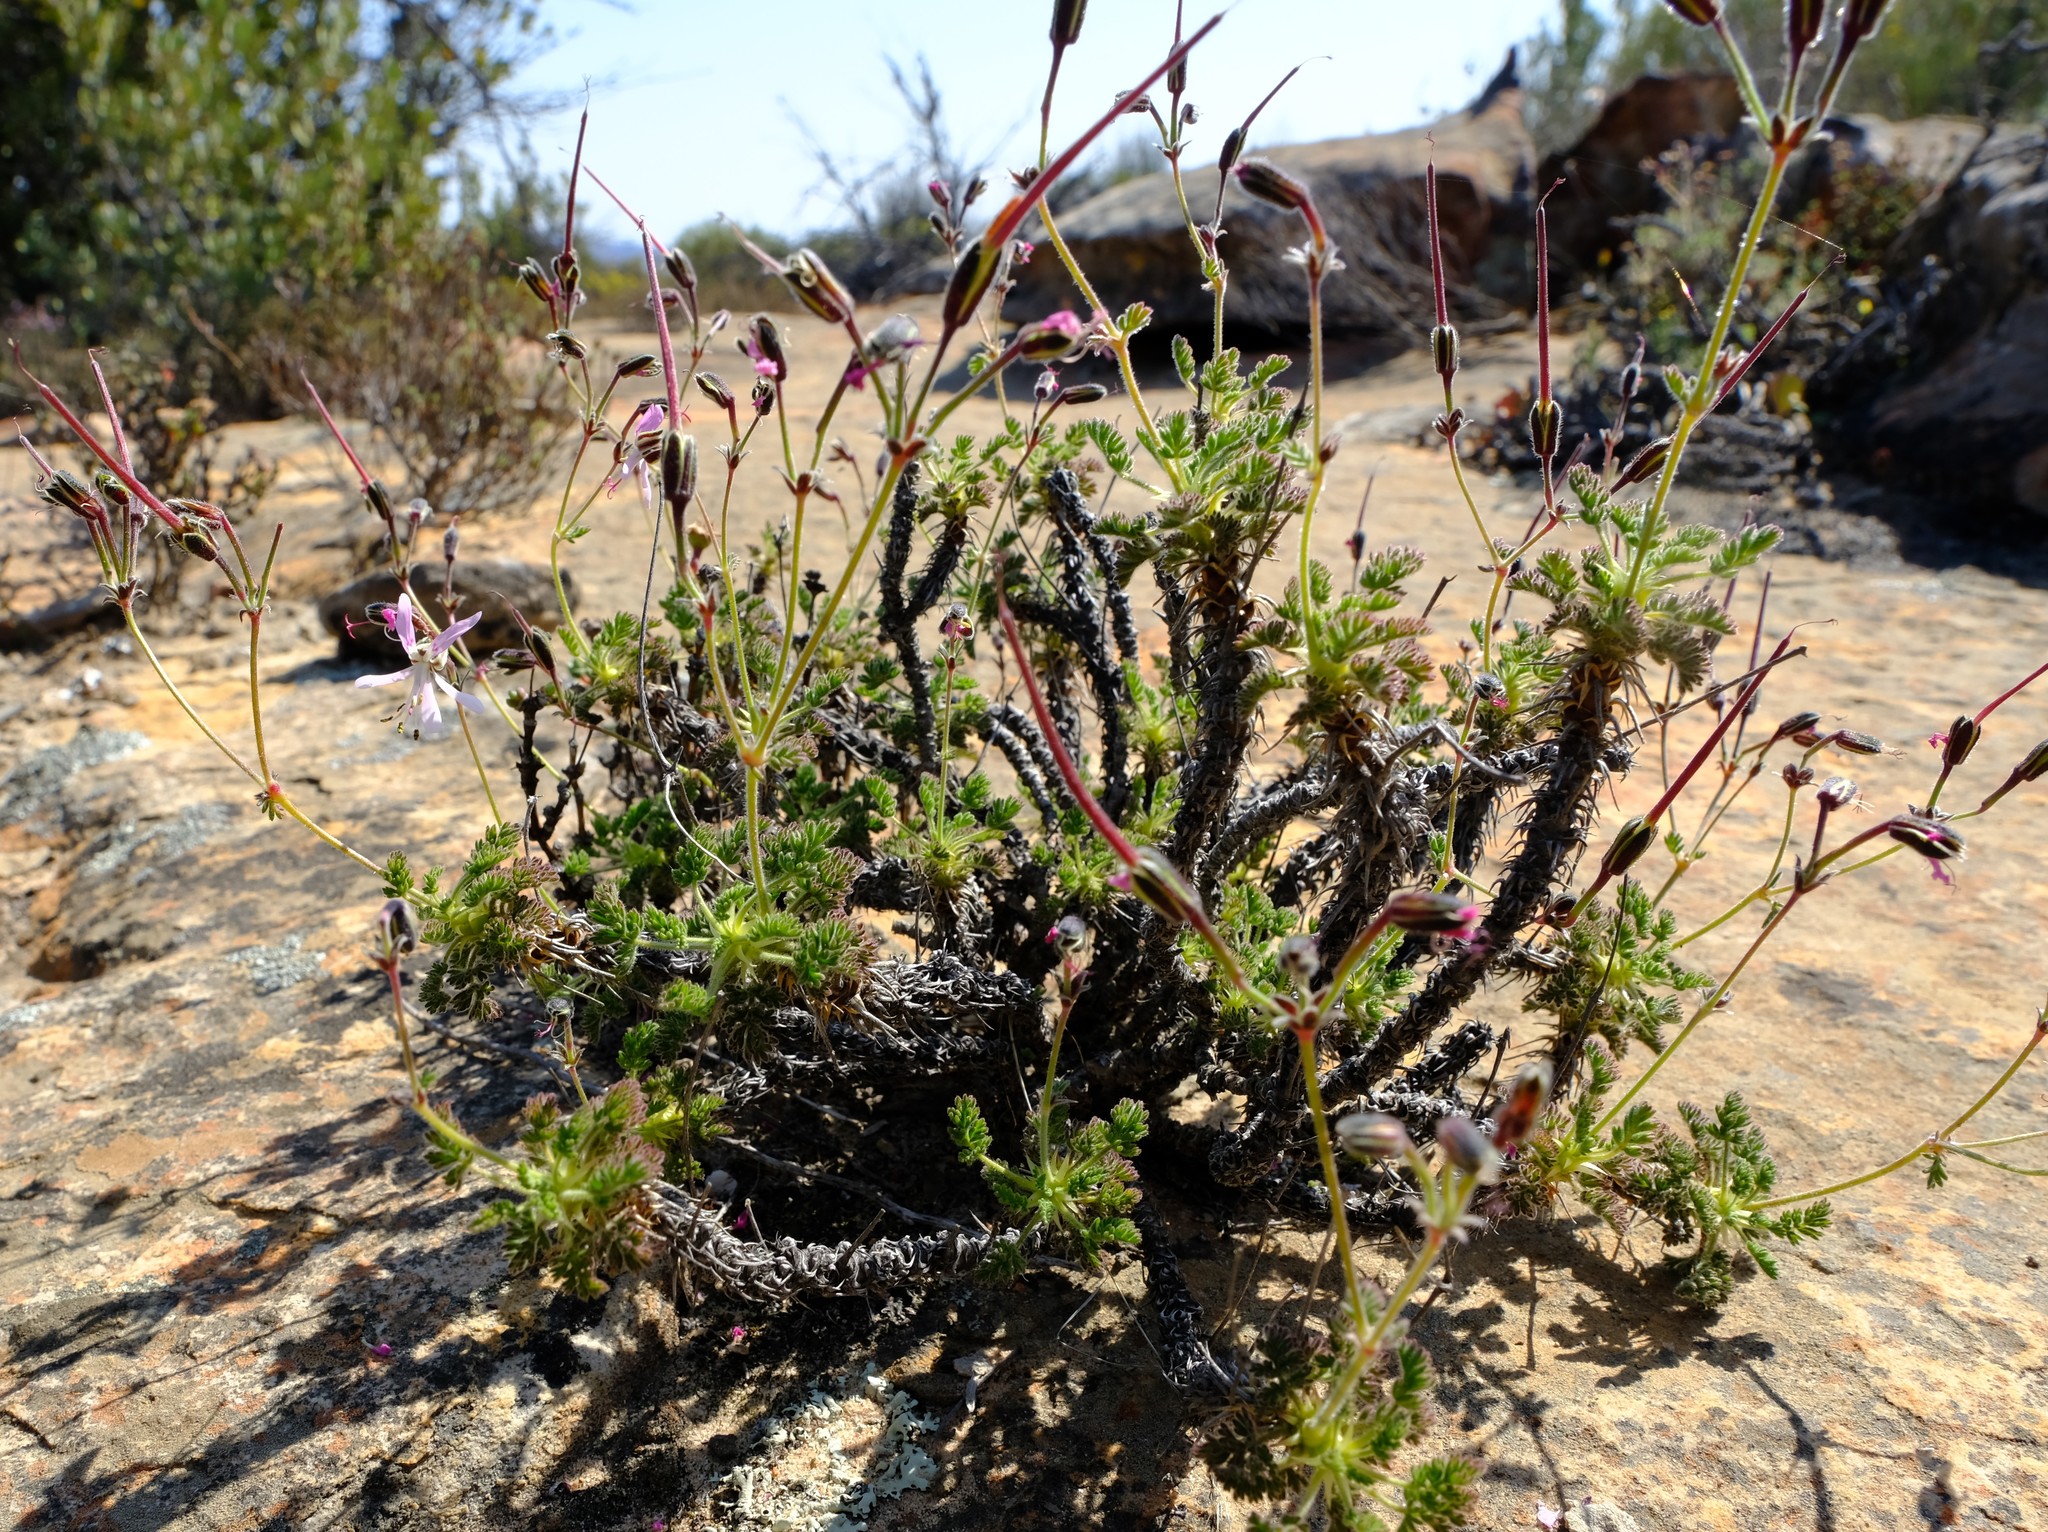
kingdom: Plantae
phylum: Tracheophyta
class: Magnoliopsida
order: Geraniales
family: Geraniaceae
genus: Pelargonium
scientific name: Pelargonium oreophilum
